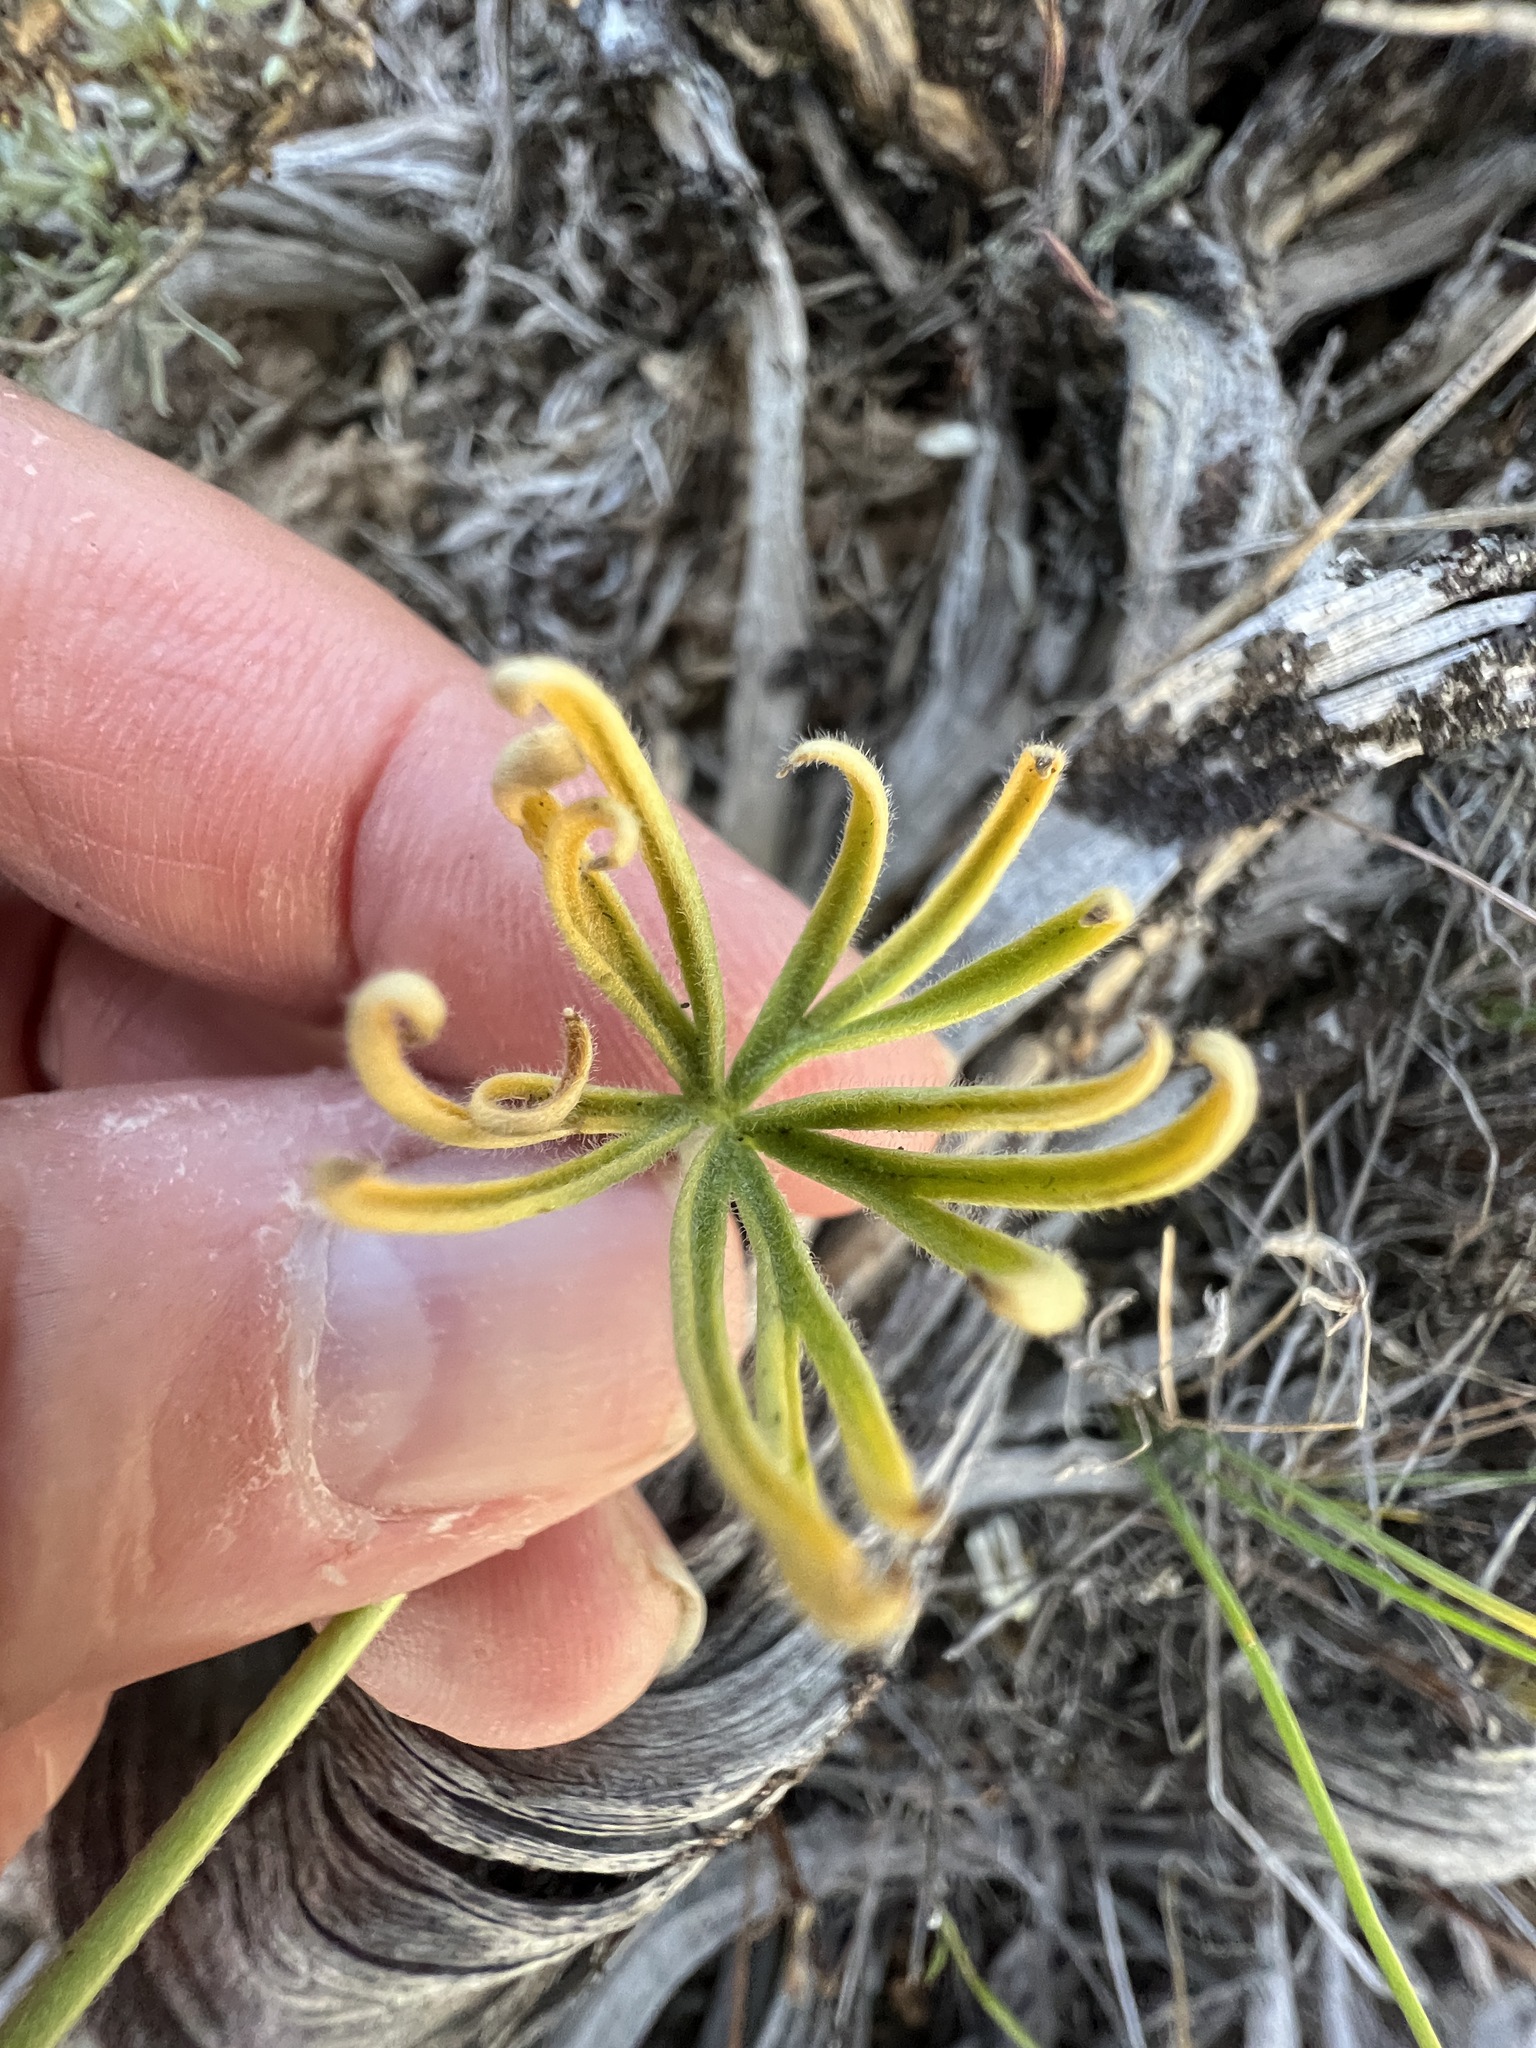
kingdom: Plantae
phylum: Tracheophyta
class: Magnoliopsida
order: Ranunculales
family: Ranunculaceae
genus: Delphinium
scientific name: Delphinium nuttallianum
